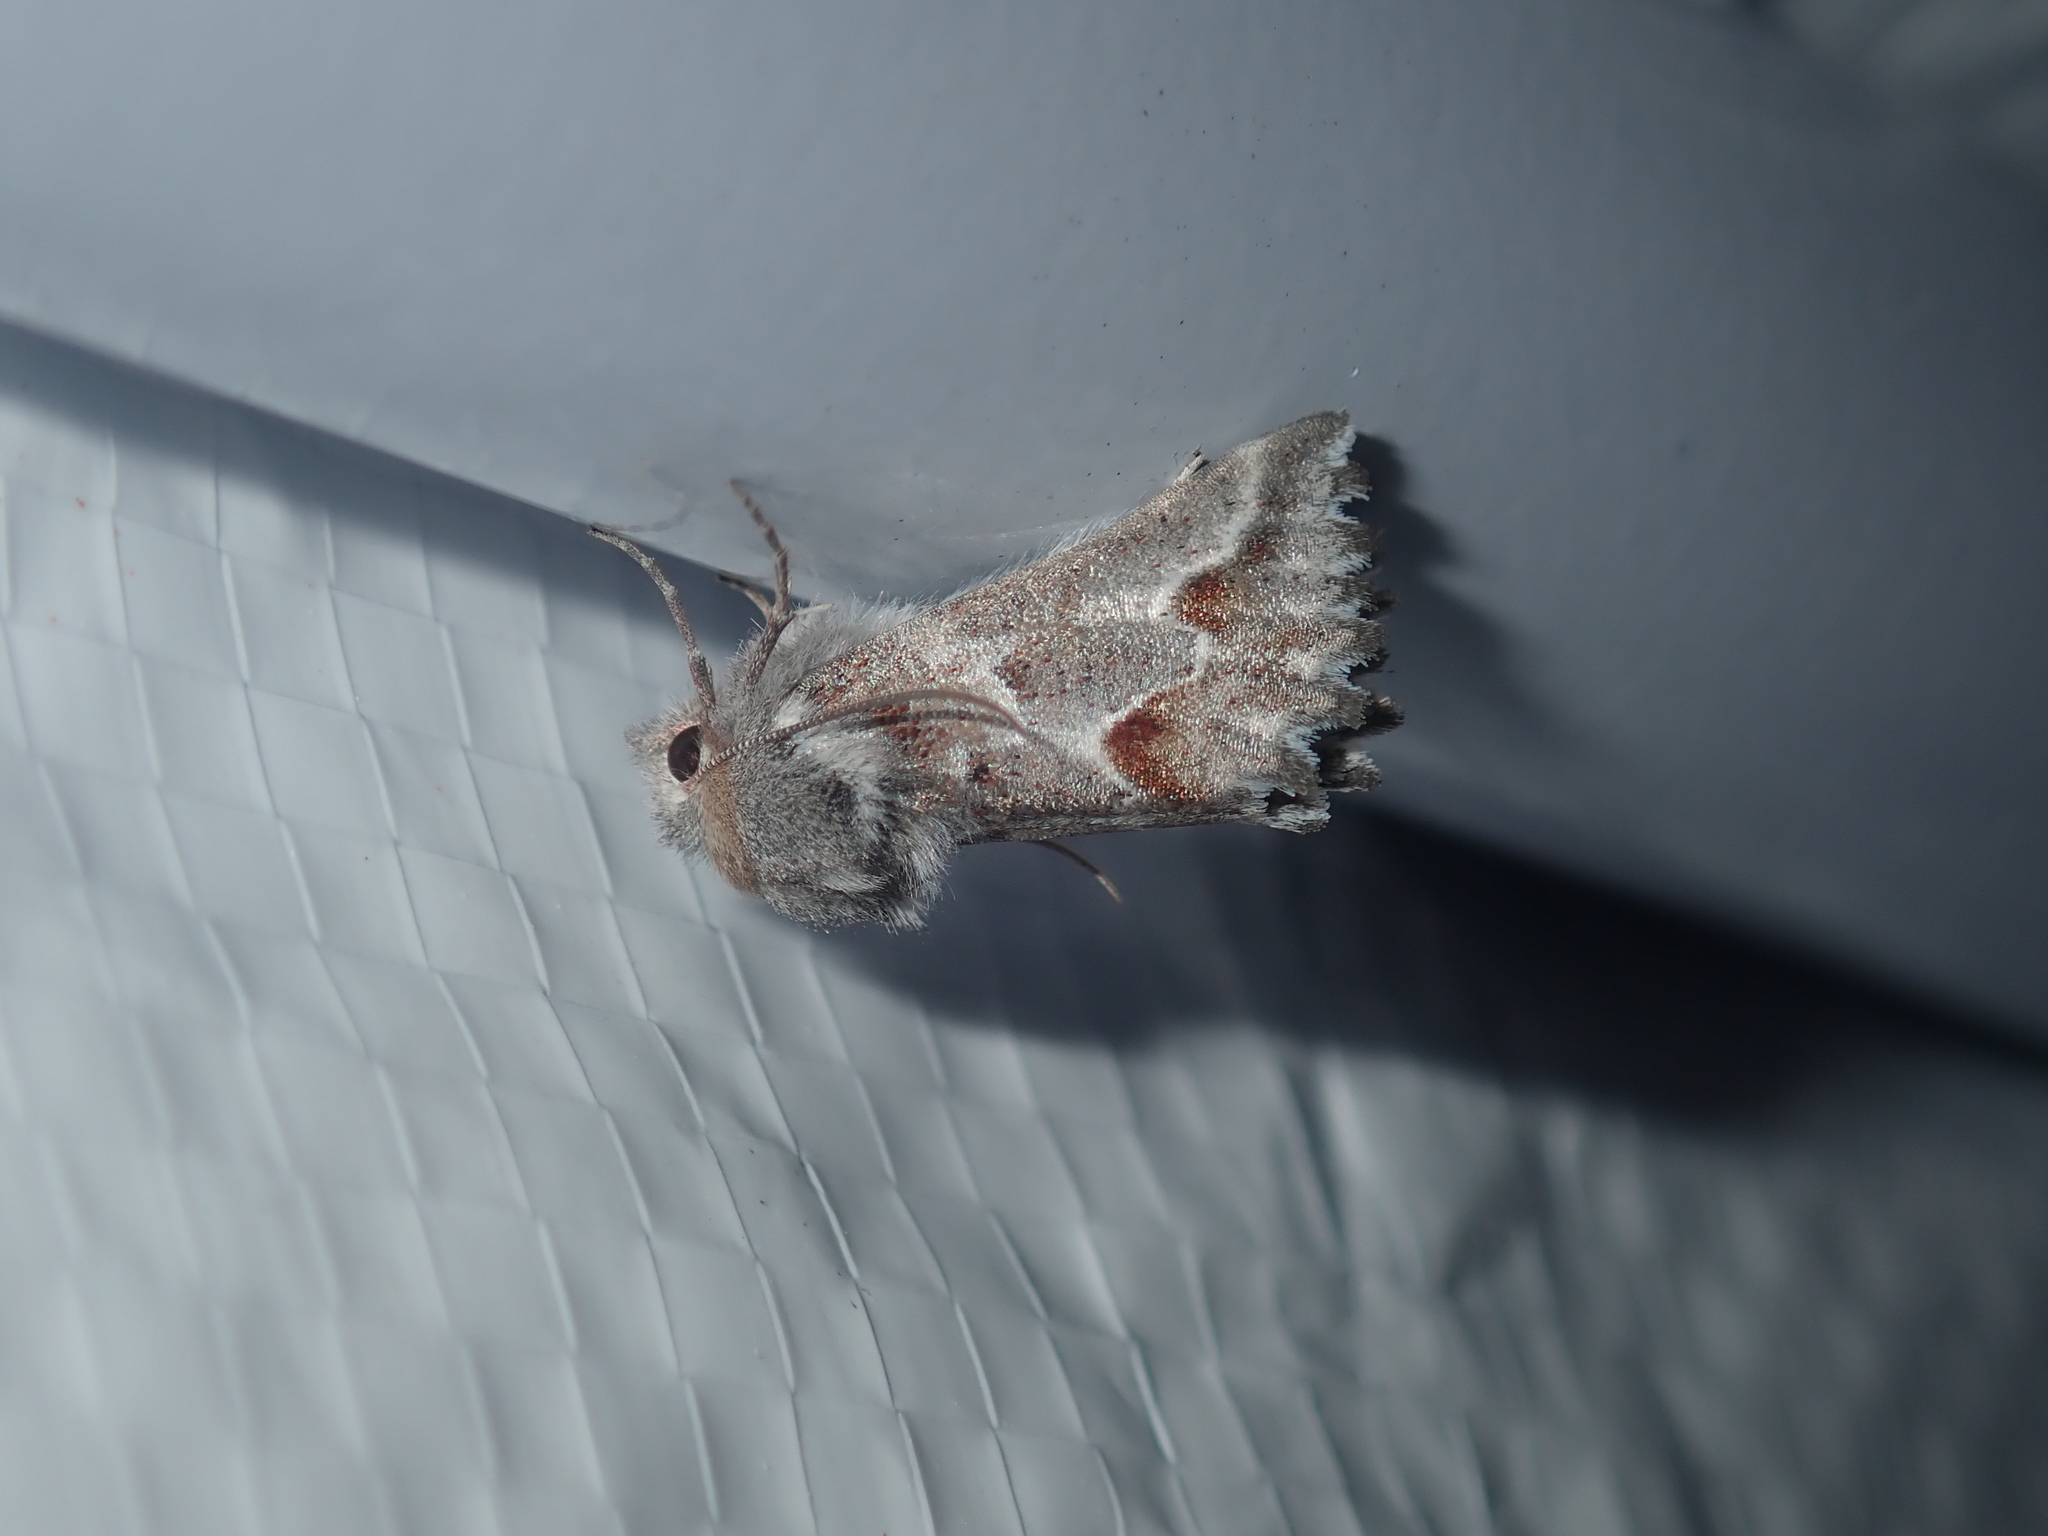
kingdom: Animalia
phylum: Arthropoda
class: Insecta
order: Lepidoptera
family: Geometridae
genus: Hypographa
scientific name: Hypographa epiodes
